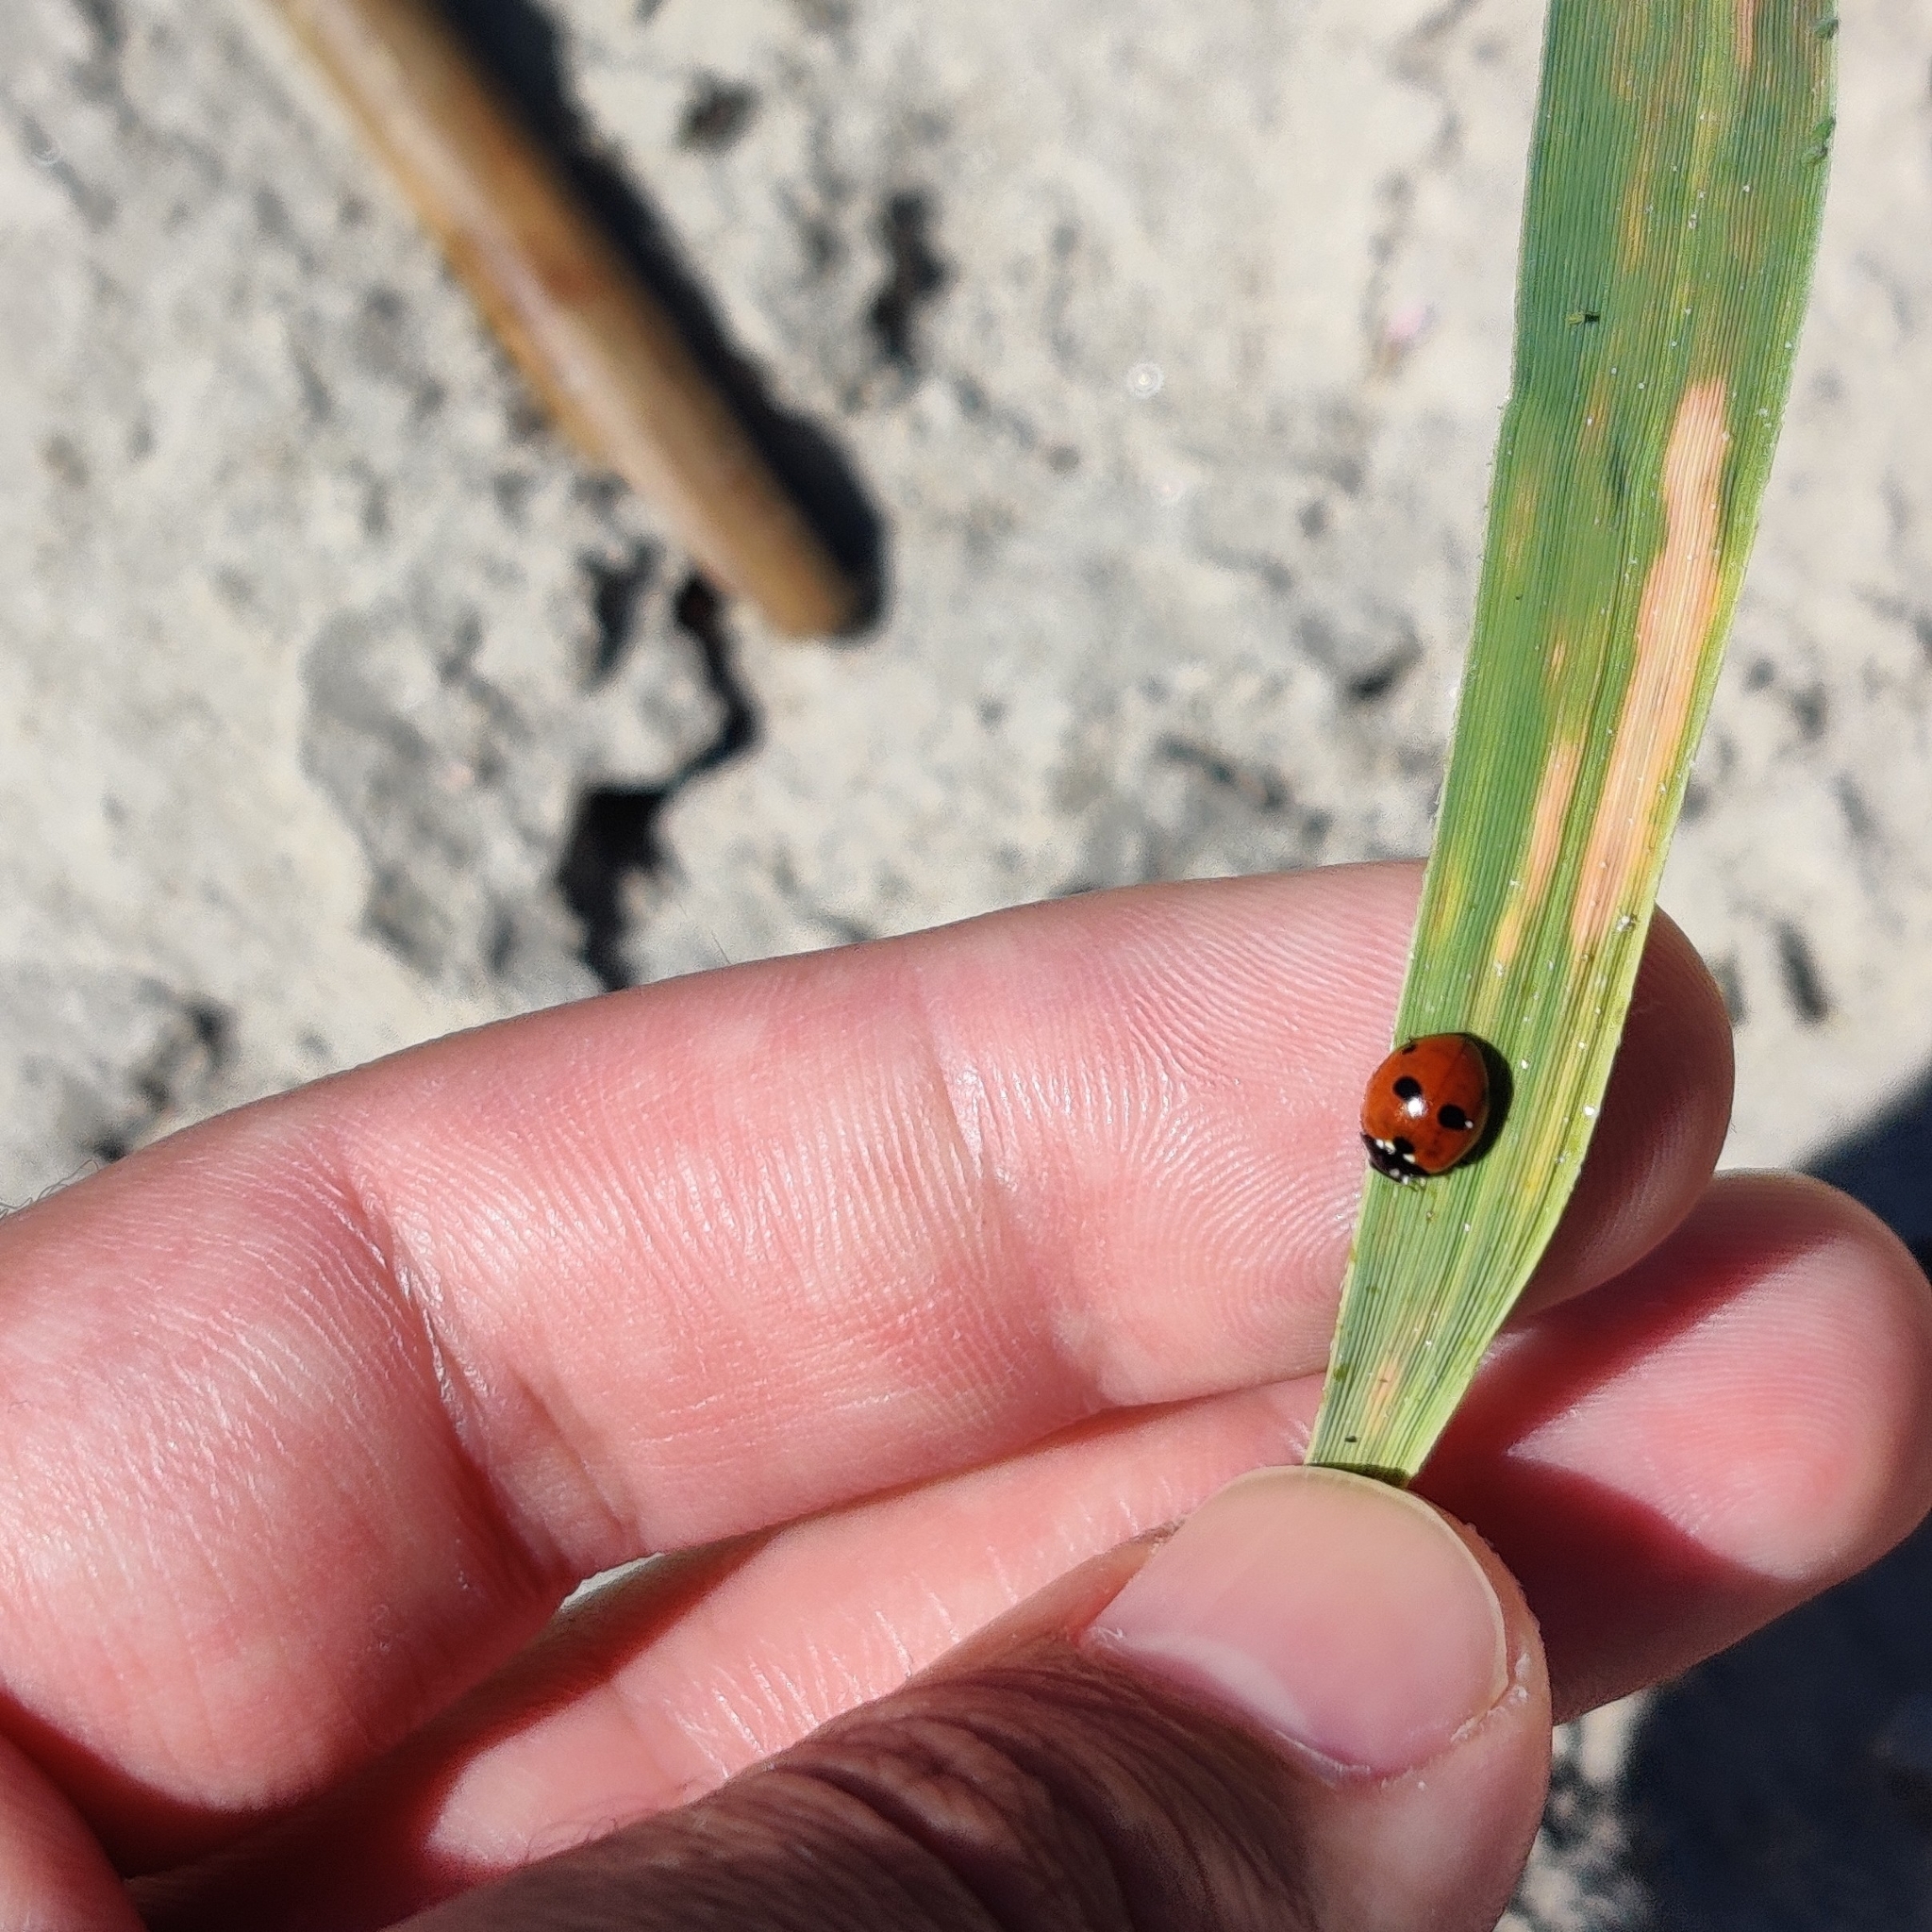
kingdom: Animalia
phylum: Arthropoda
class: Insecta
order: Coleoptera
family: Coccinellidae
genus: Coccinella
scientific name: Coccinella quinquepunctata
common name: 5-spot ladybird
